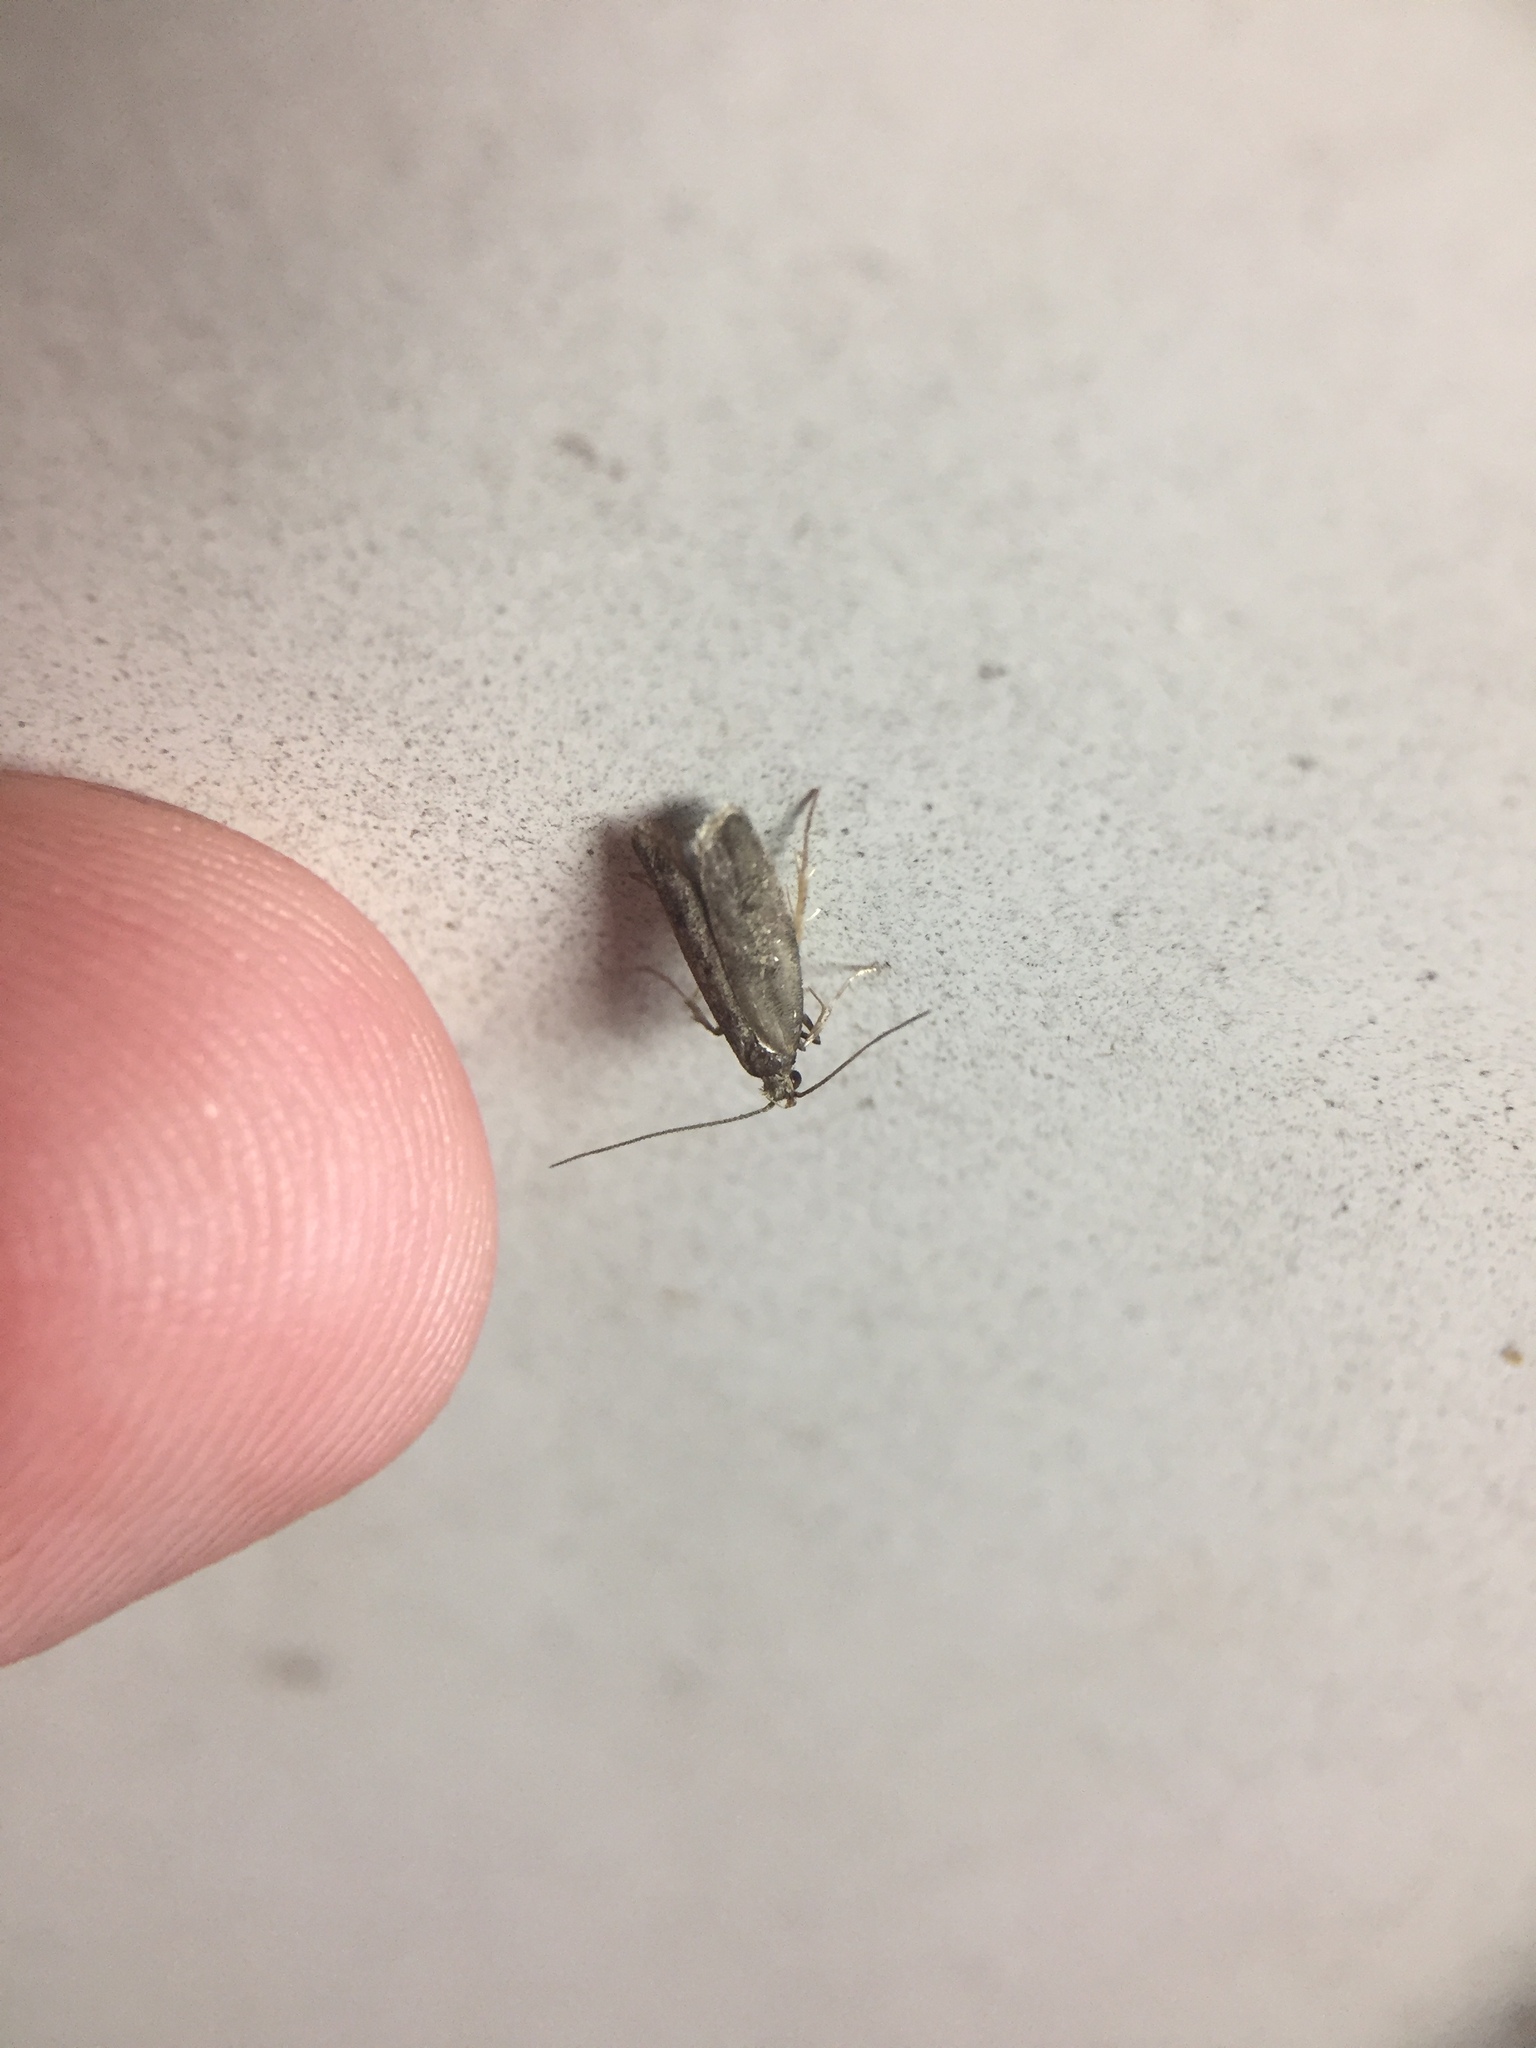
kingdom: Animalia
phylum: Arthropoda
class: Insecta
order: Lepidoptera
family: Oecophoridae
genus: Gymnobathra
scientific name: Gymnobathra tholodella
